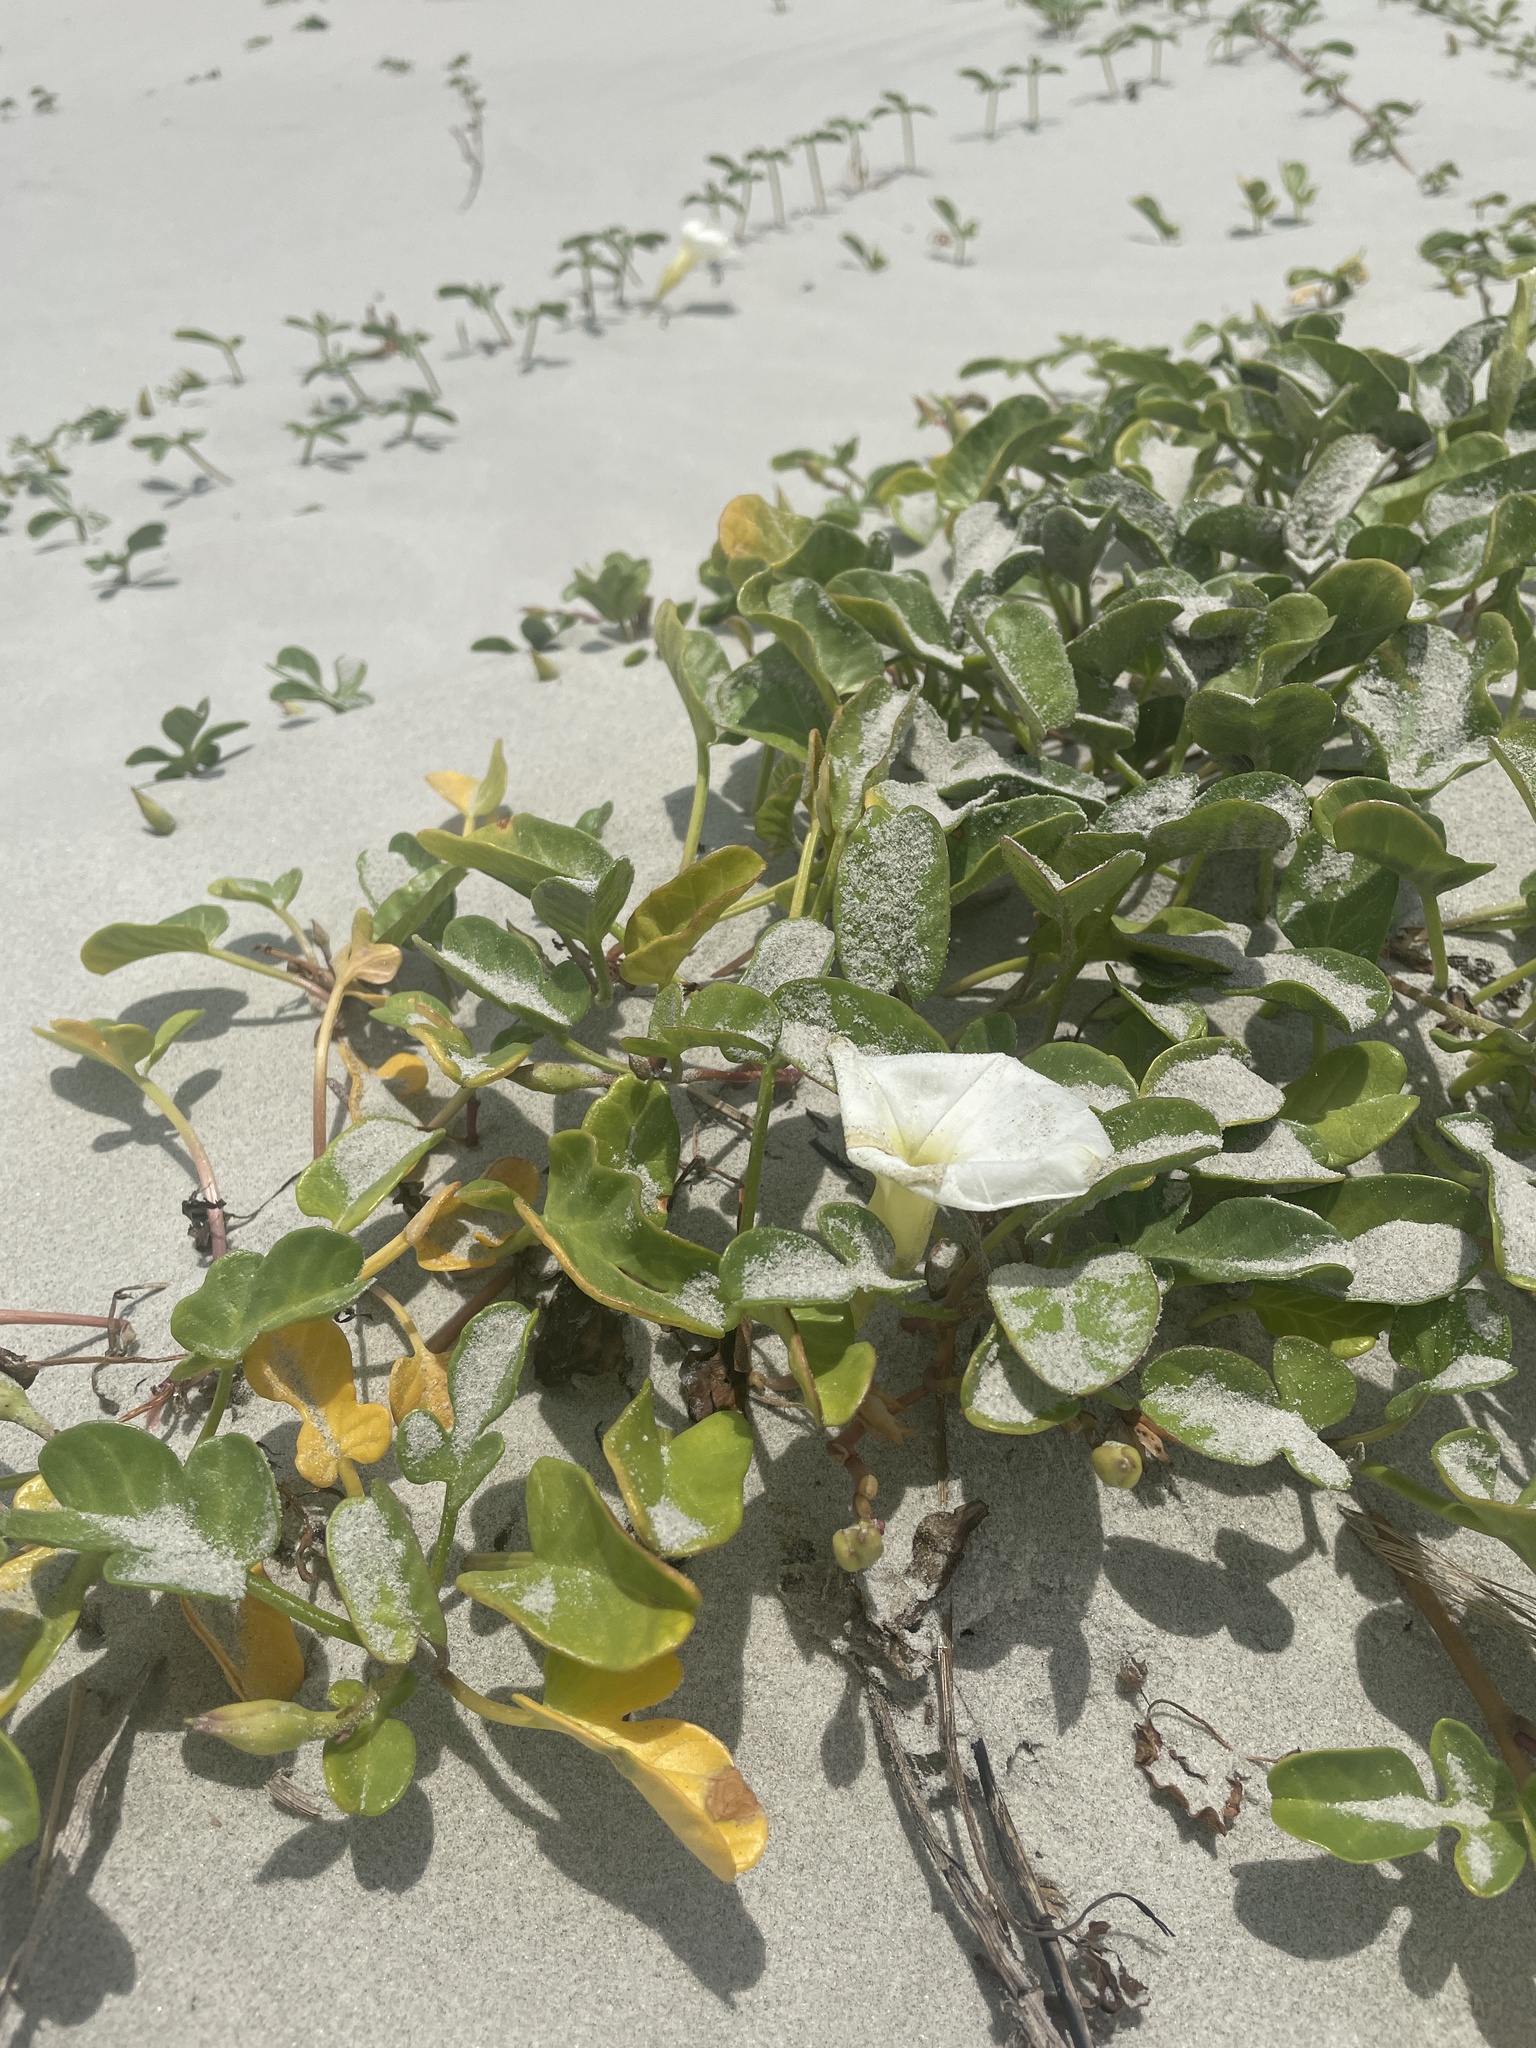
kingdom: Plantae
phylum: Tracheophyta
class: Magnoliopsida
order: Solanales
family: Convolvulaceae
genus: Ipomoea
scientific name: Ipomoea imperati
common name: Fiddle-leaf morning-glory
